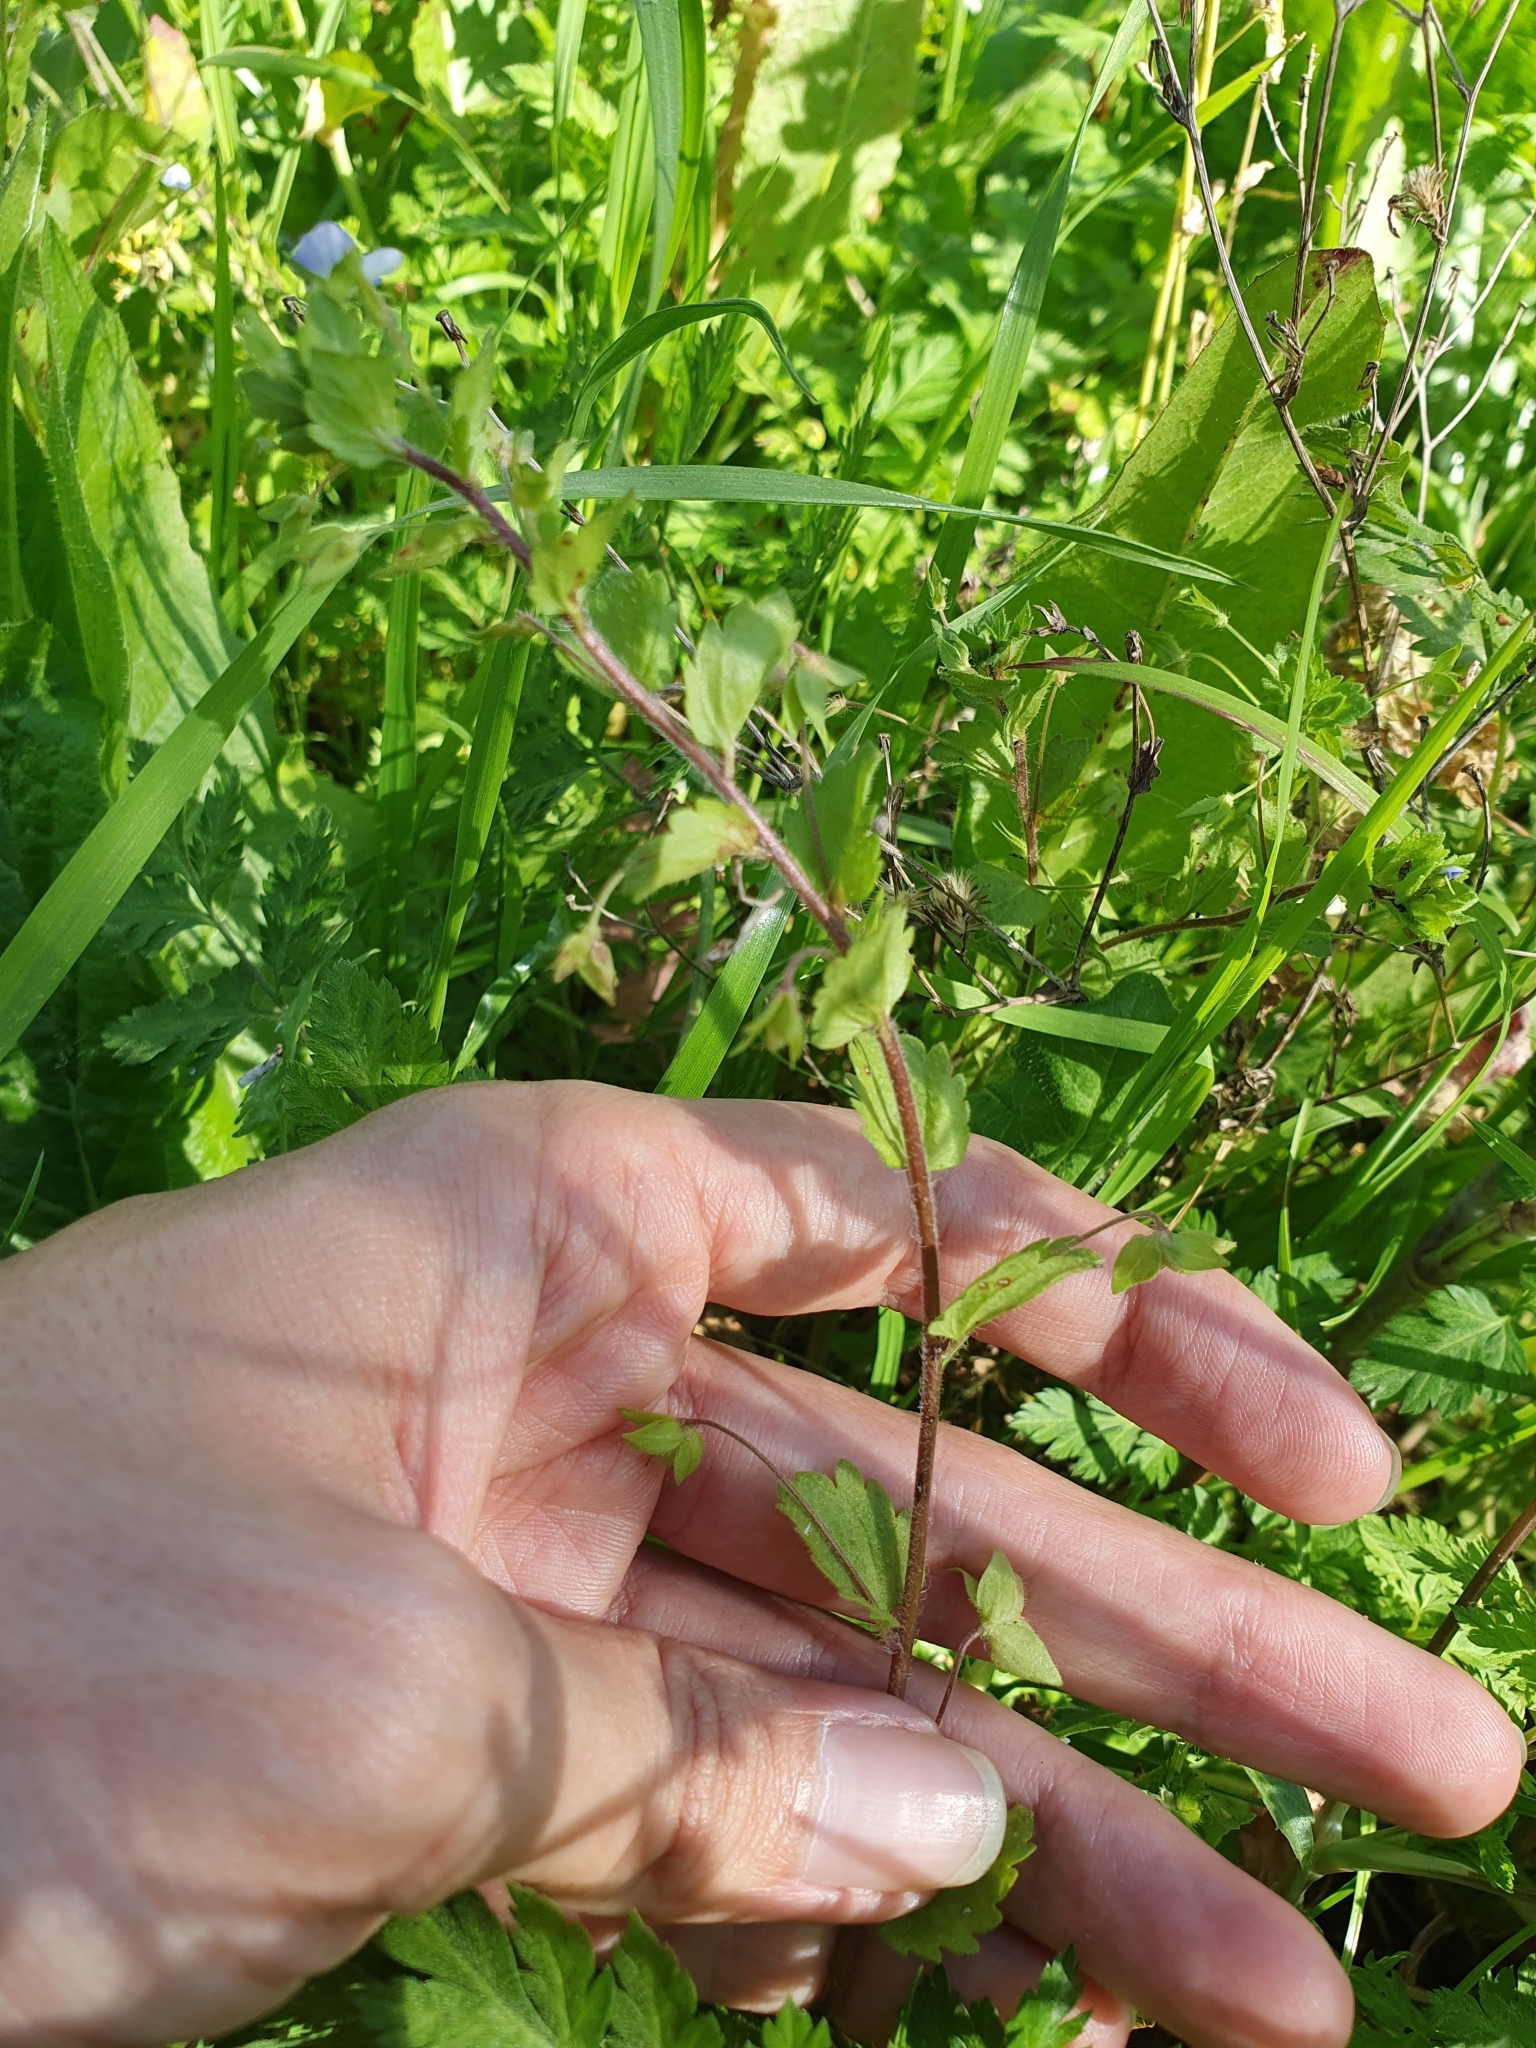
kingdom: Plantae
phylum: Tracheophyta
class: Magnoliopsida
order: Lamiales
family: Plantaginaceae
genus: Veronica
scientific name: Veronica persica
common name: Common field-speedwell
